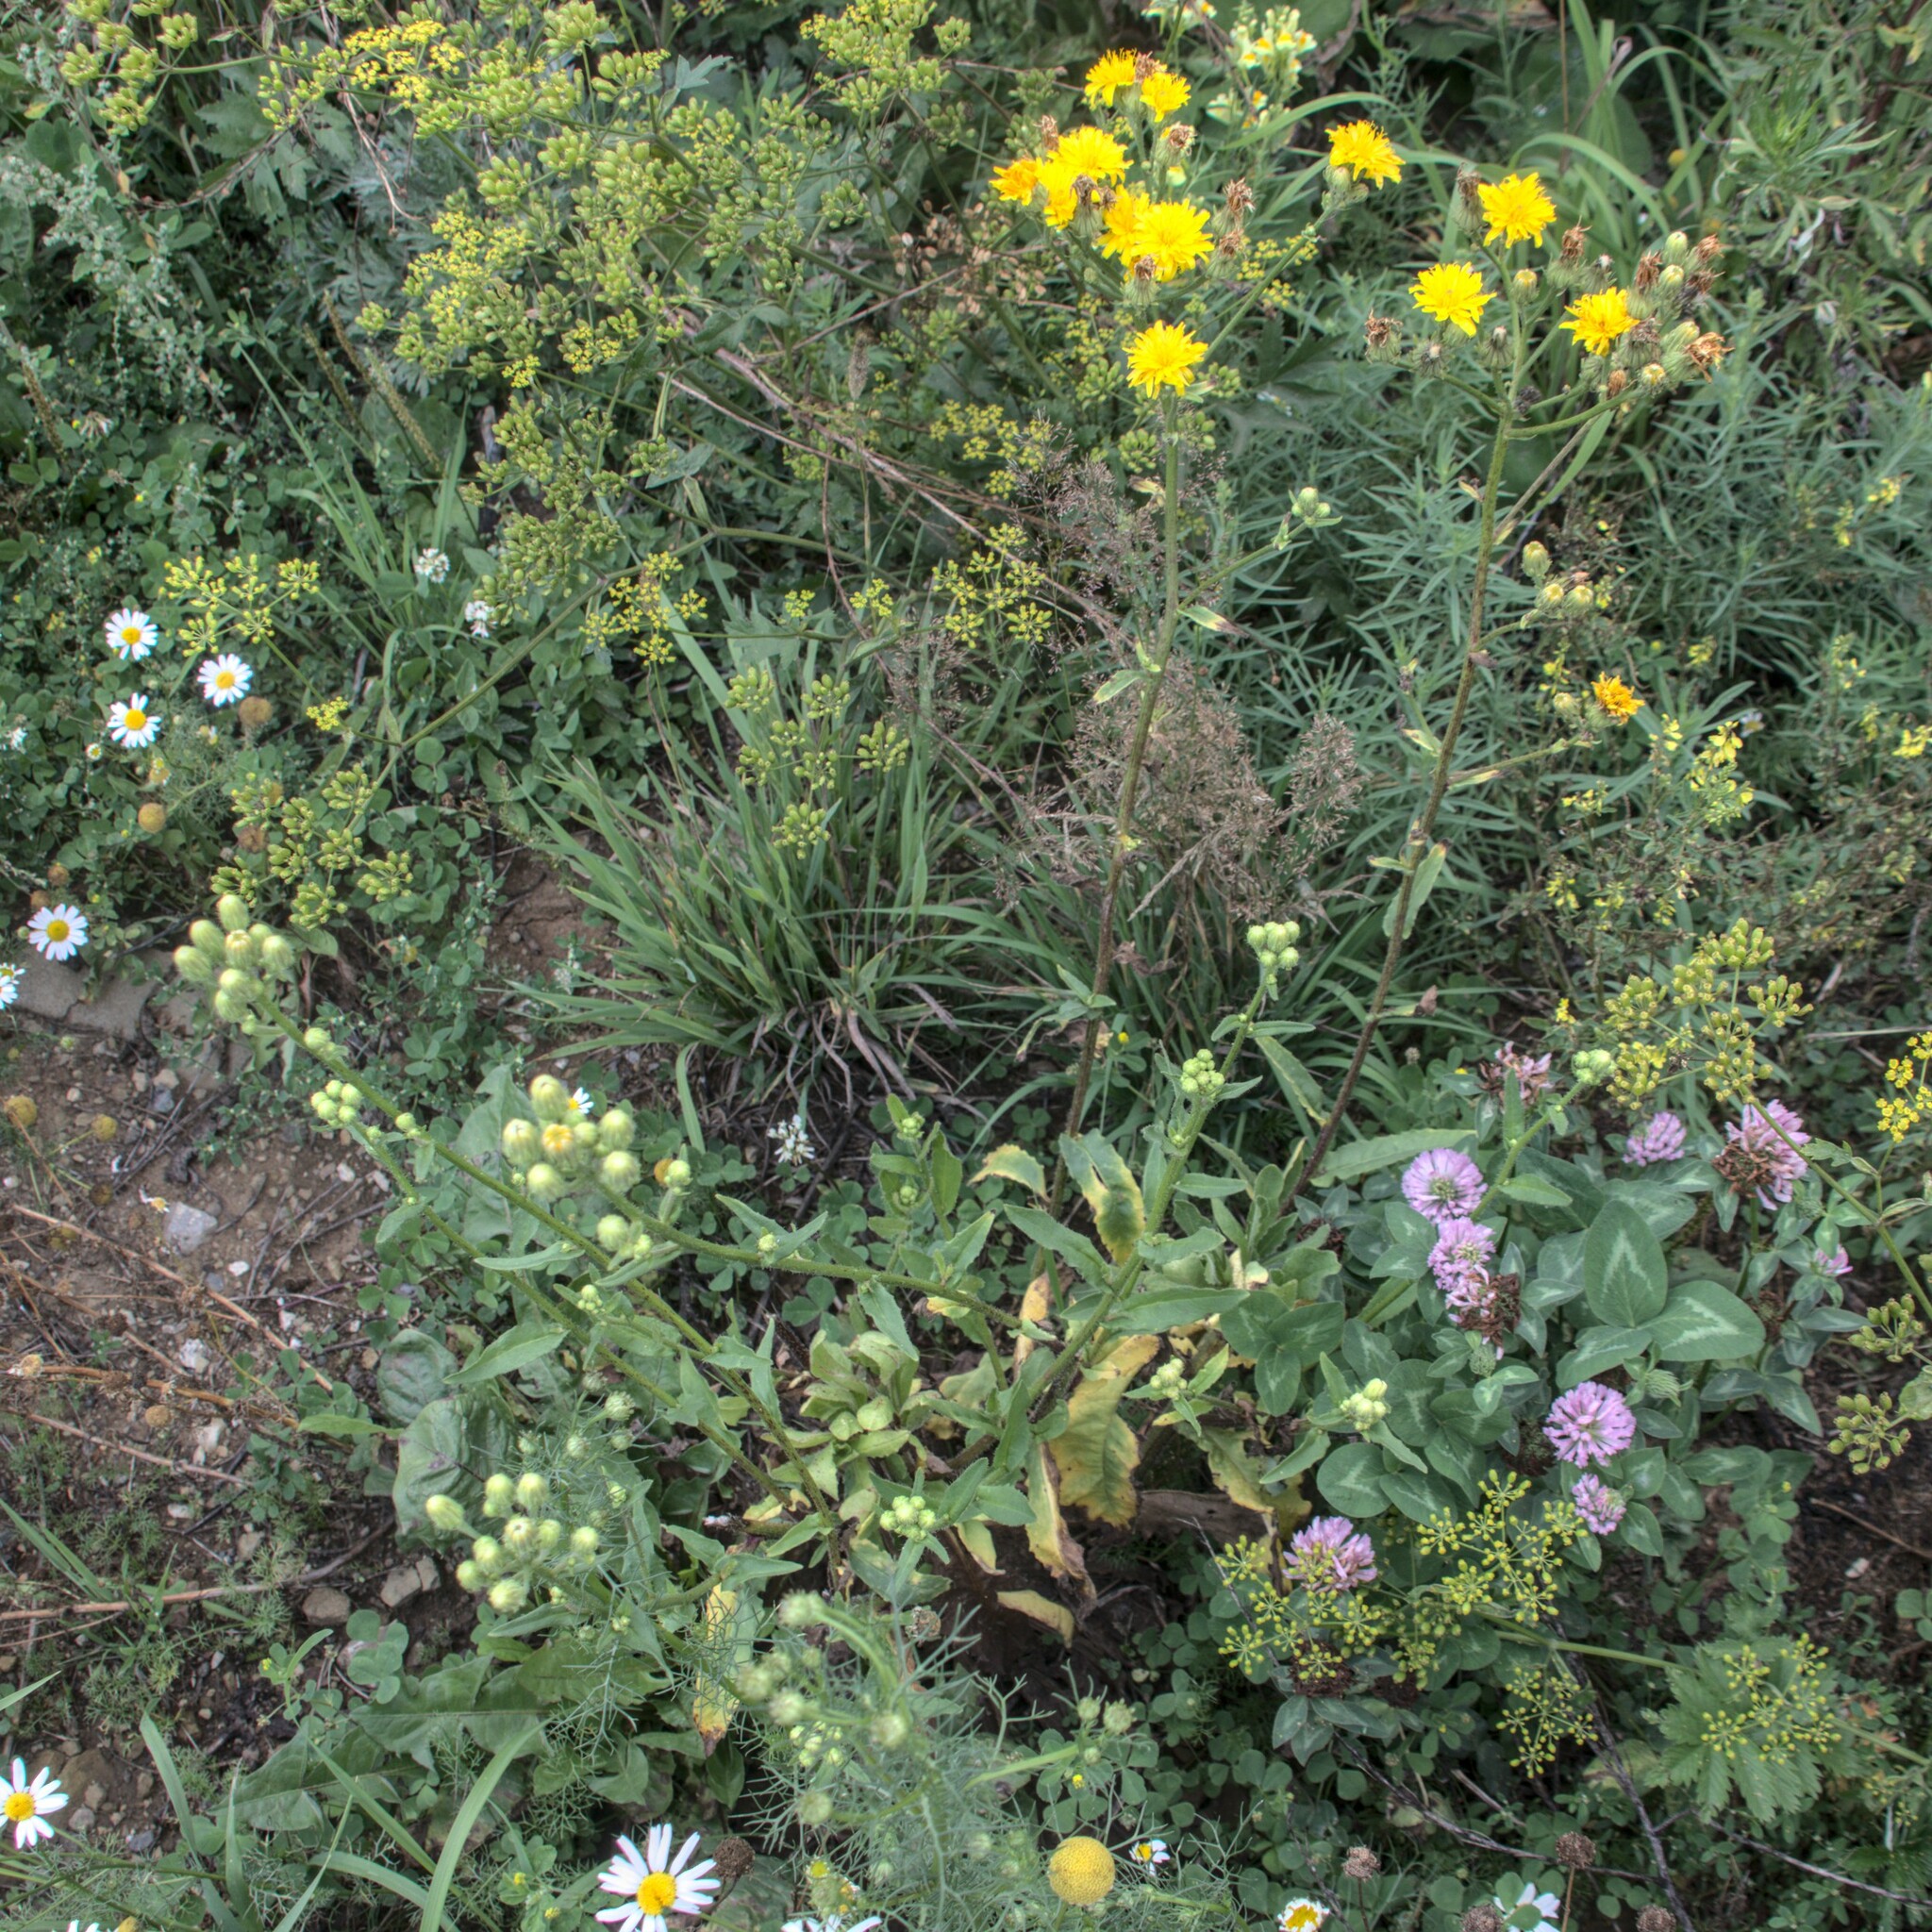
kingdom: Plantae
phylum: Tracheophyta
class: Magnoliopsida
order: Asterales
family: Asteraceae
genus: Picris
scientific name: Picris hieracioides
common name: Hawkweed oxtongue
